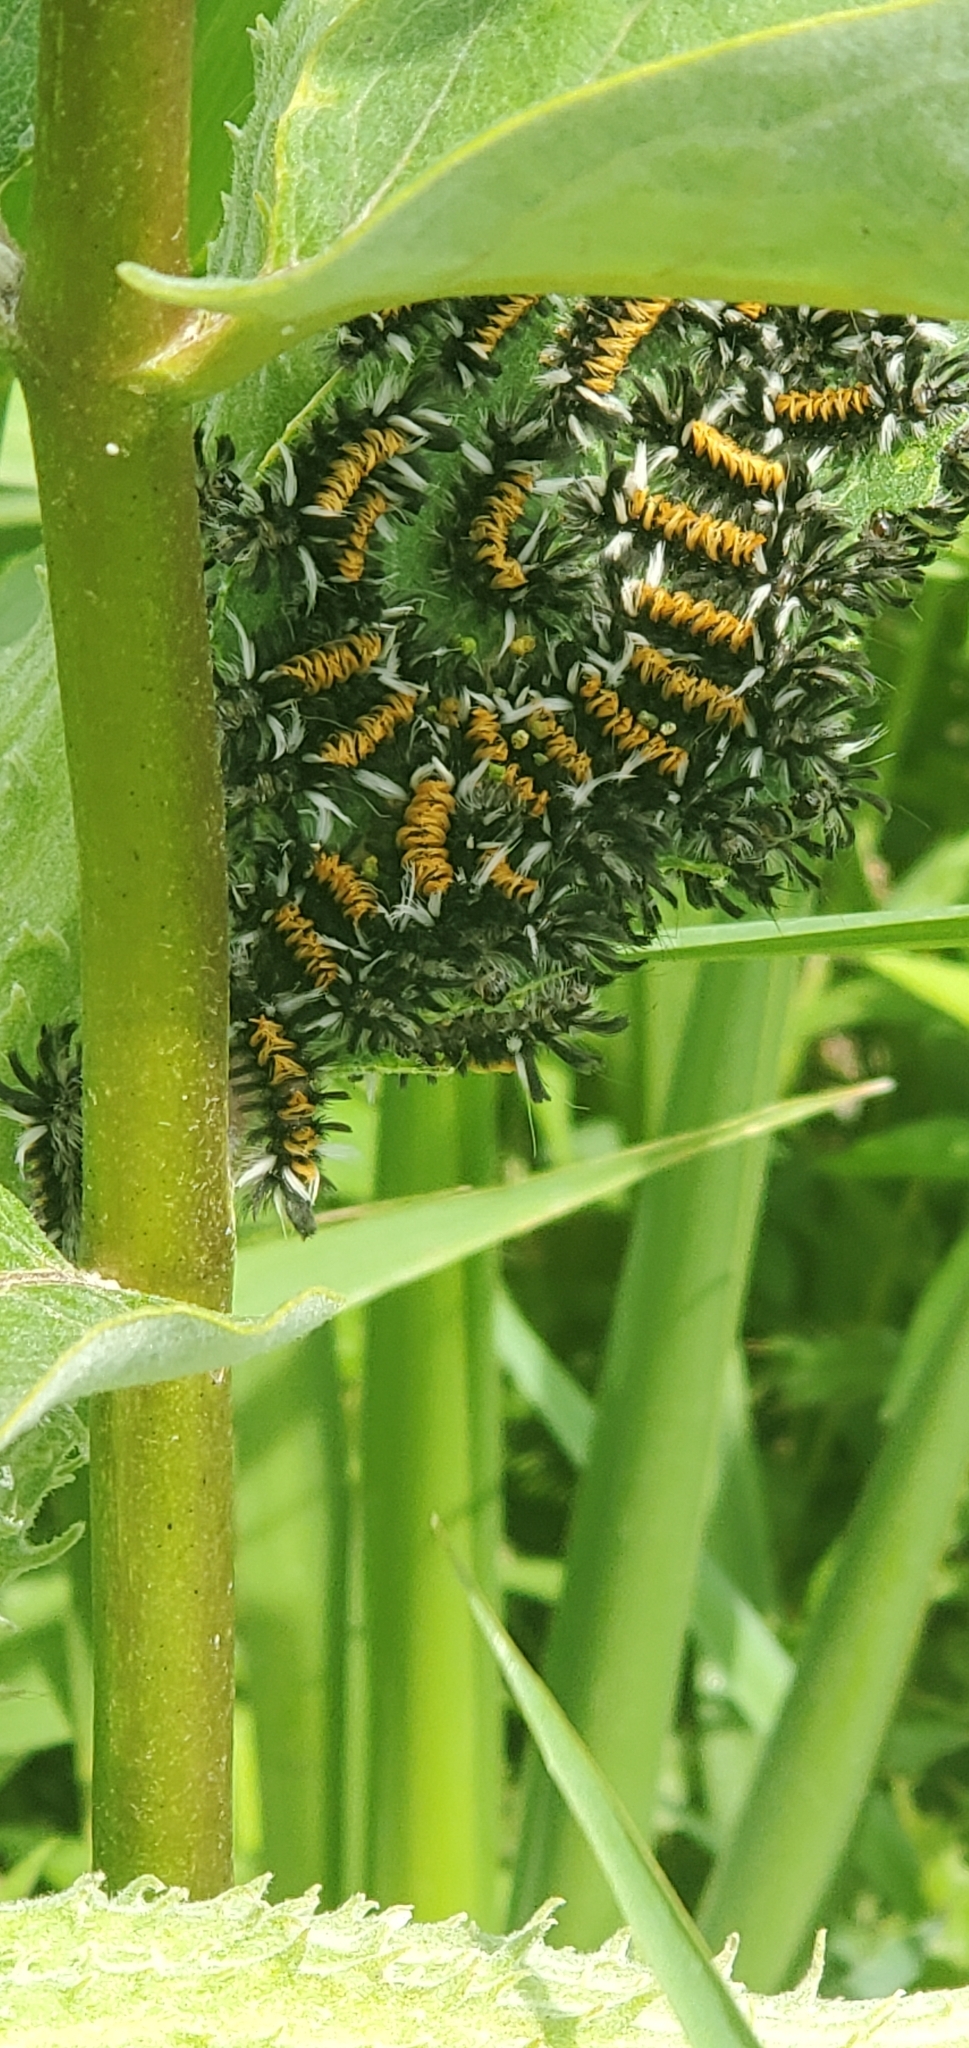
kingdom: Animalia
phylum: Arthropoda
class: Insecta
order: Lepidoptera
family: Erebidae
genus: Euchaetes
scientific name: Euchaetes egle
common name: Milkweed tussock moth
